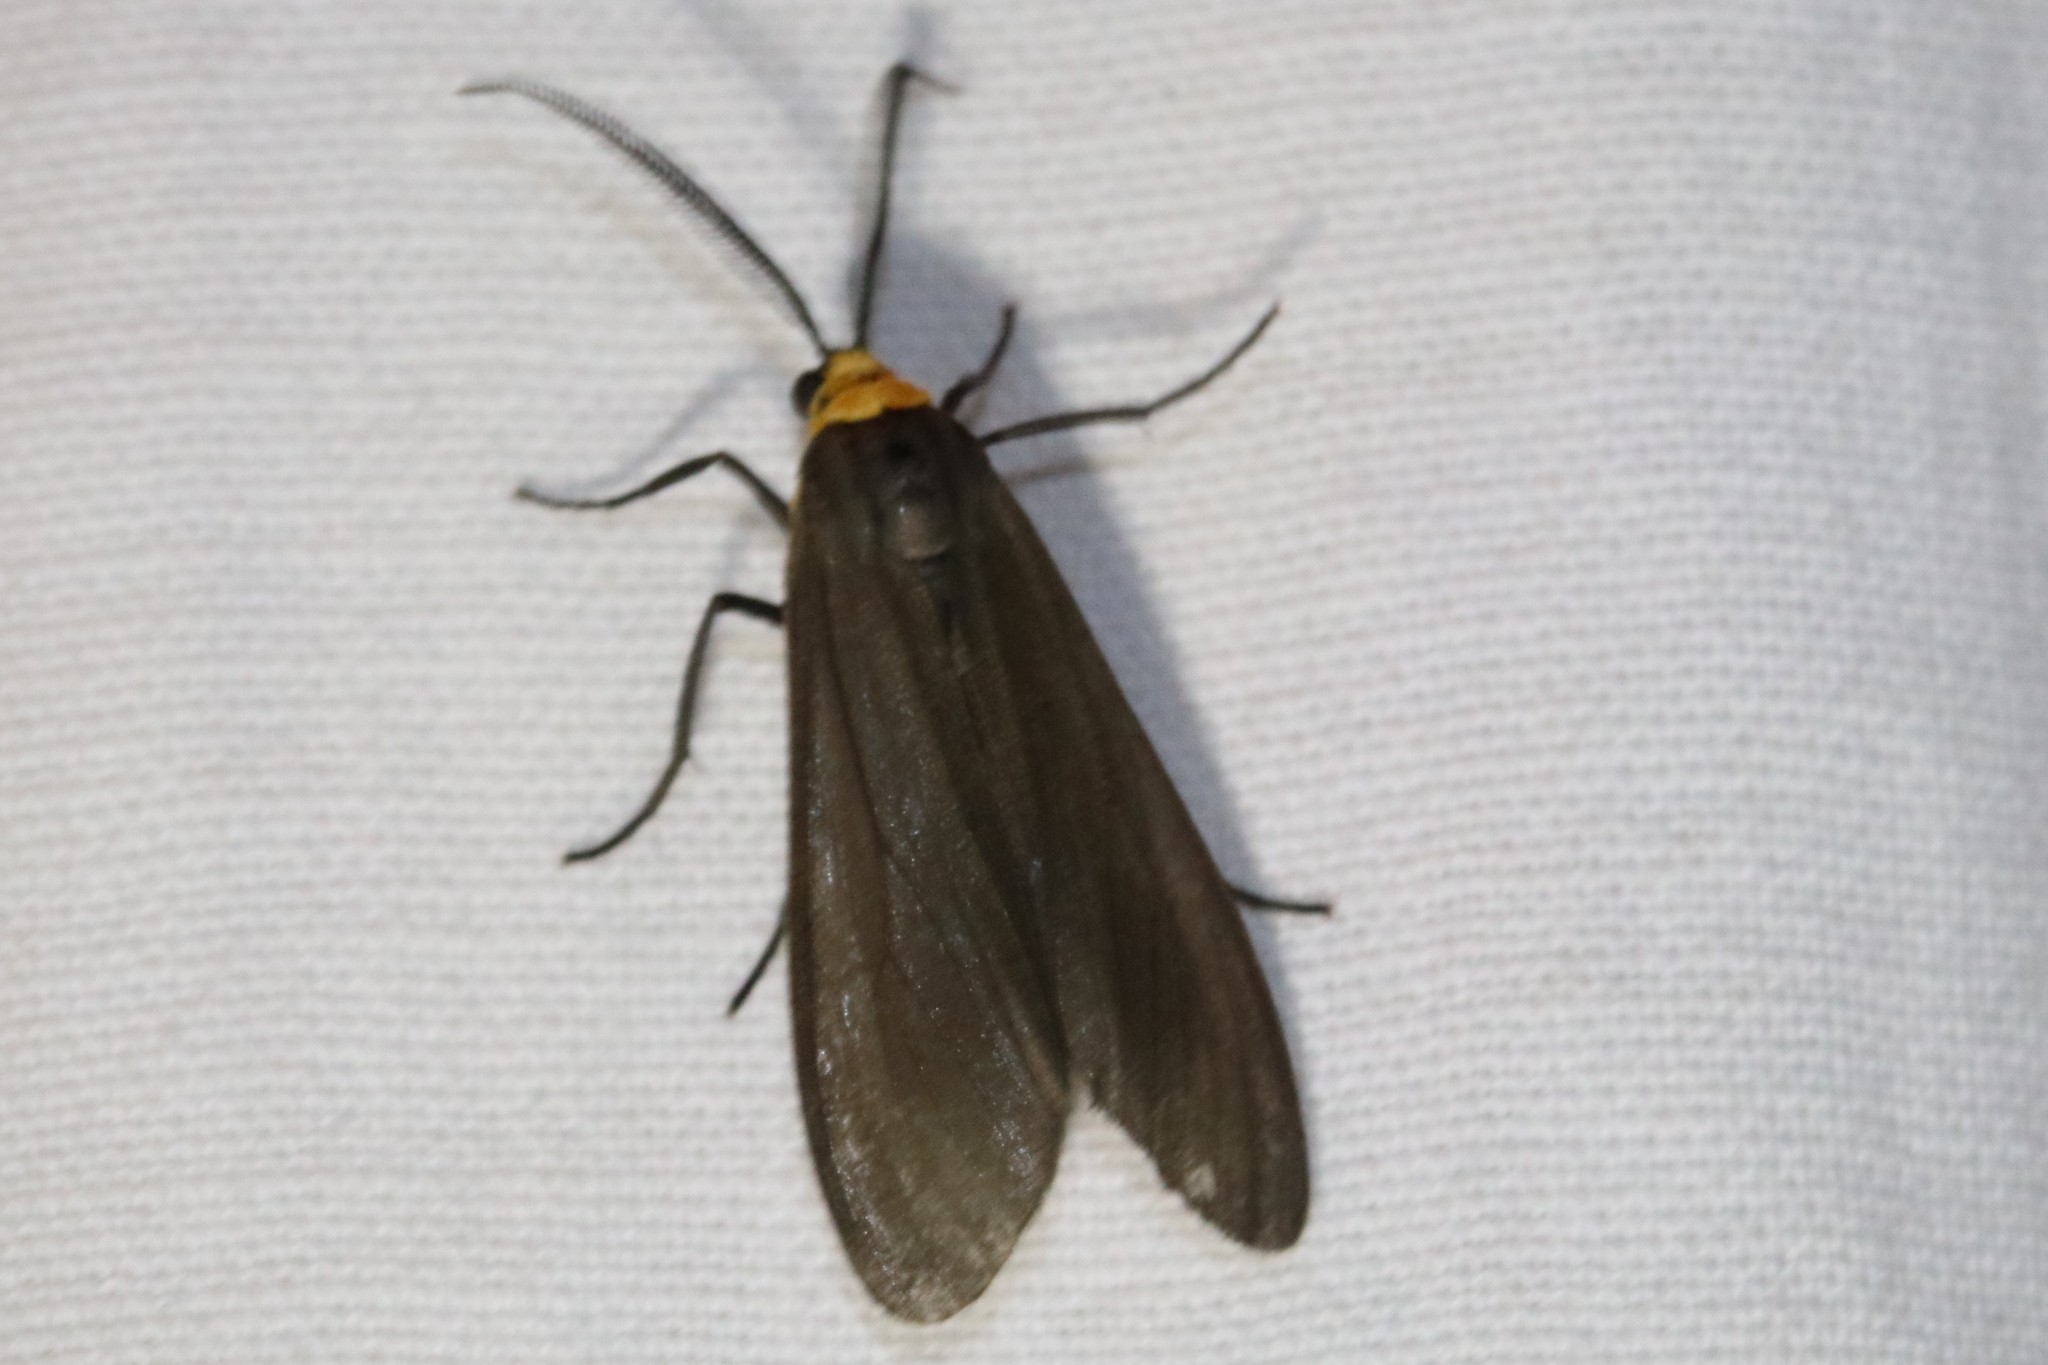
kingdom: Animalia
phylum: Arthropoda
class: Insecta
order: Lepidoptera
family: Erebidae
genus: Cisseps
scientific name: Cisseps fulvicollis
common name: Yellow-collared scape moth
